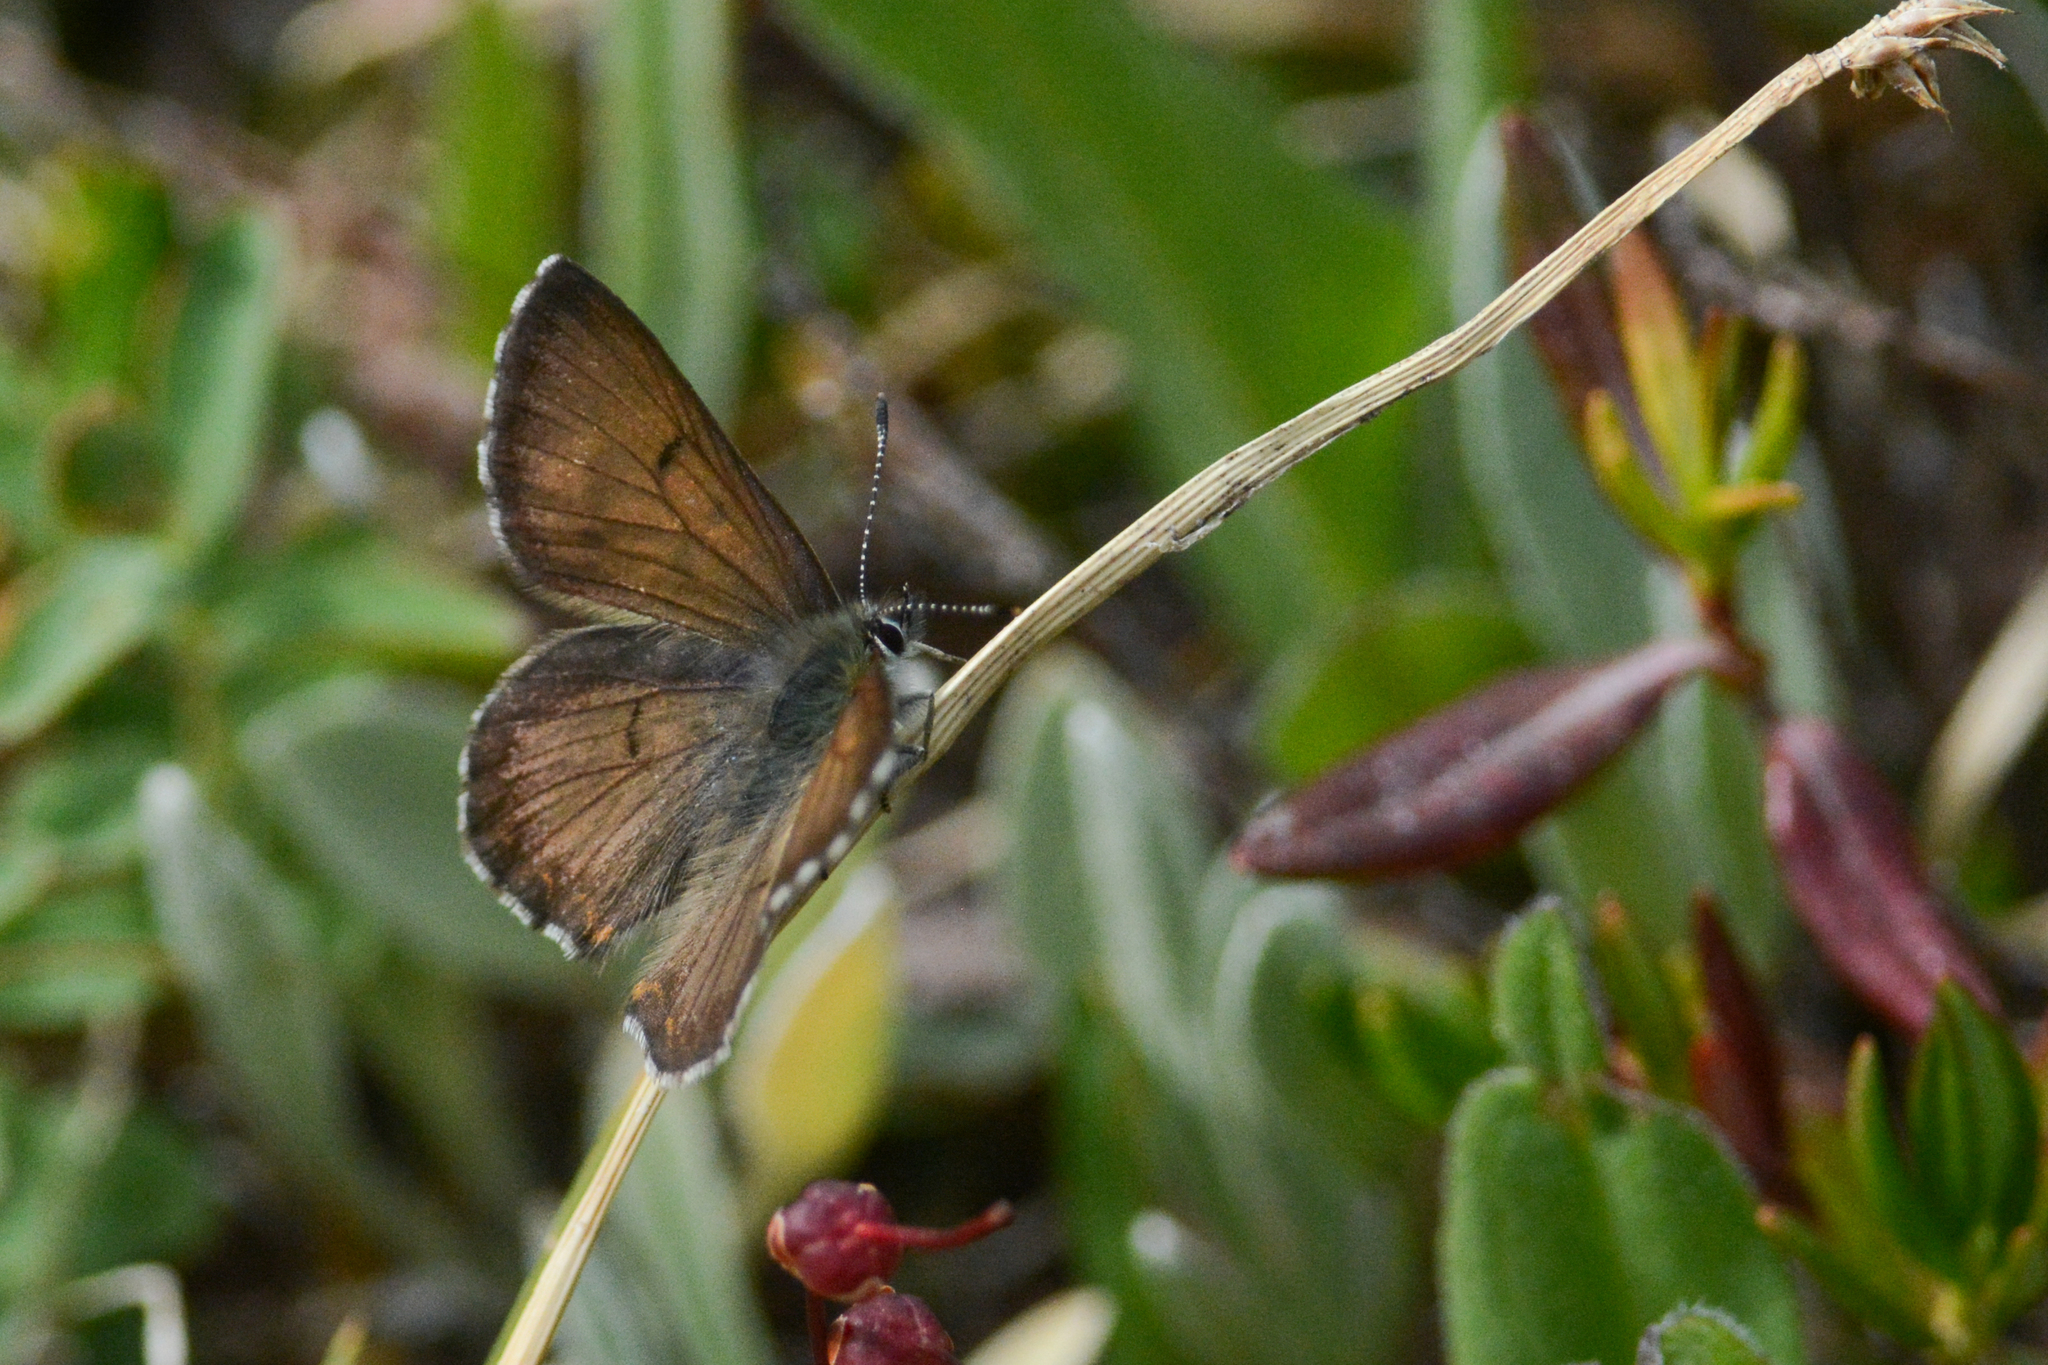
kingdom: Animalia
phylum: Arthropoda
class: Insecta
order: Lepidoptera
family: Lycaenidae
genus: Tharsalea
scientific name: Tharsalea mariposa
